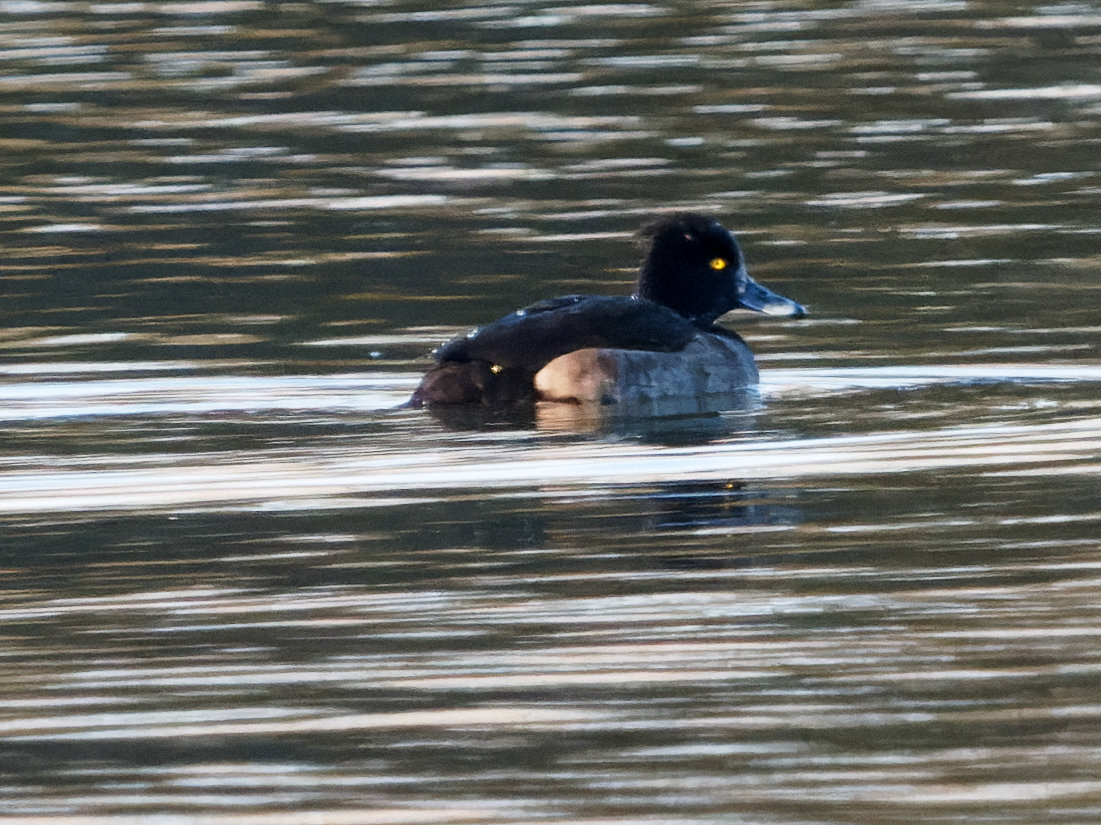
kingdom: Animalia
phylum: Chordata
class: Aves
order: Anseriformes
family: Anatidae
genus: Aythya
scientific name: Aythya fuligula
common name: Tufted duck
